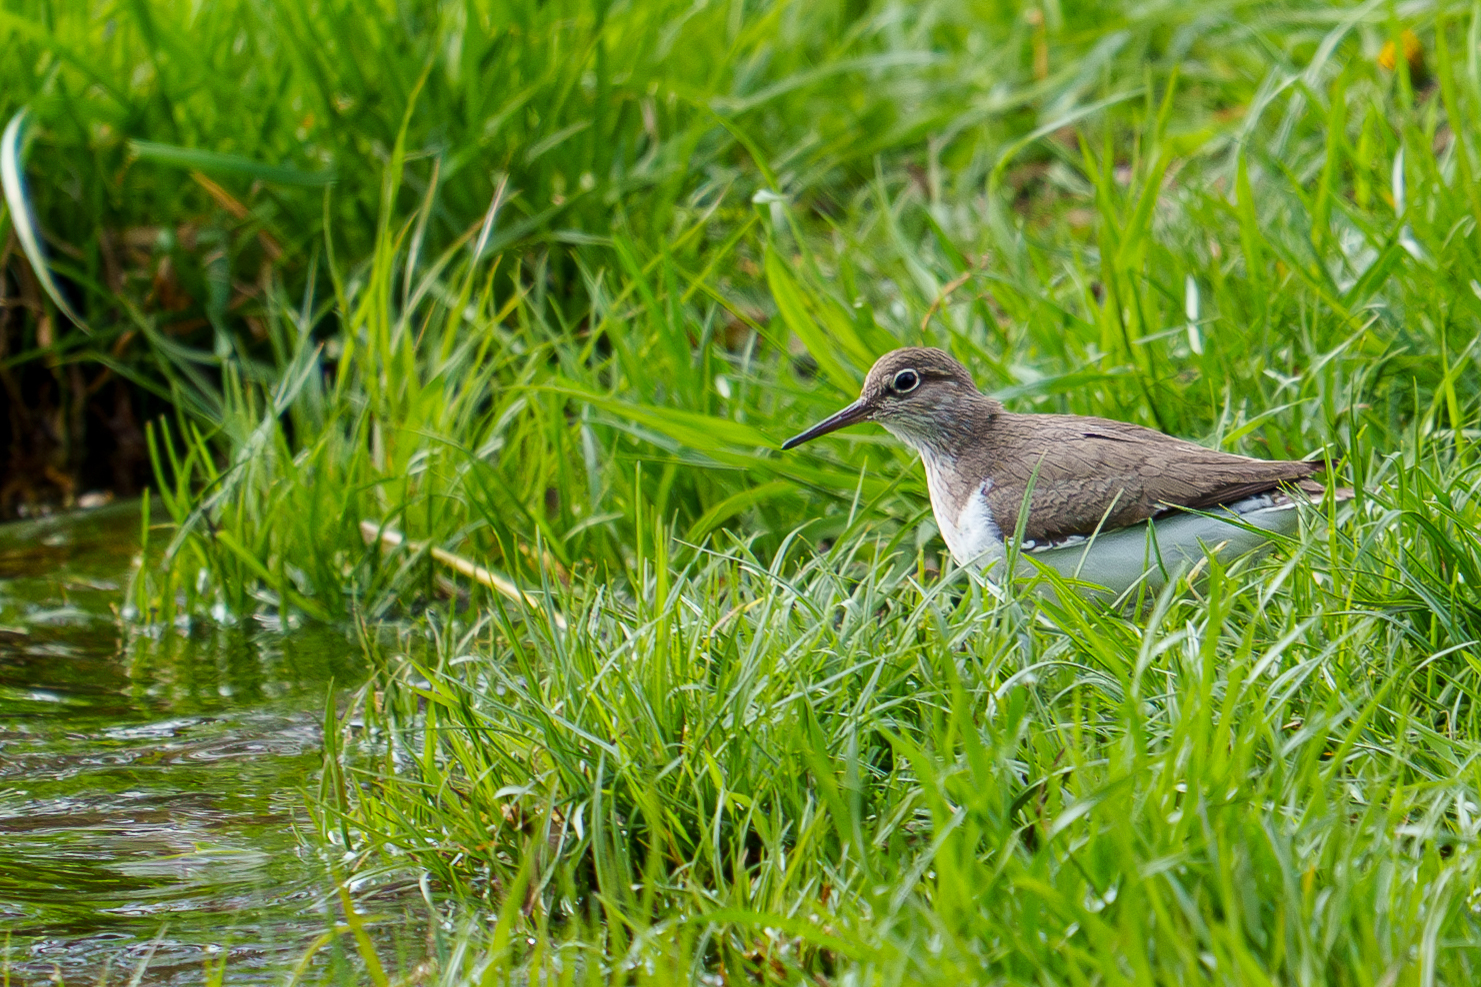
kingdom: Animalia
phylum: Chordata
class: Aves
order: Charadriiformes
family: Scolopacidae
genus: Actitis
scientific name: Actitis hypoleucos
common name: Common sandpiper
